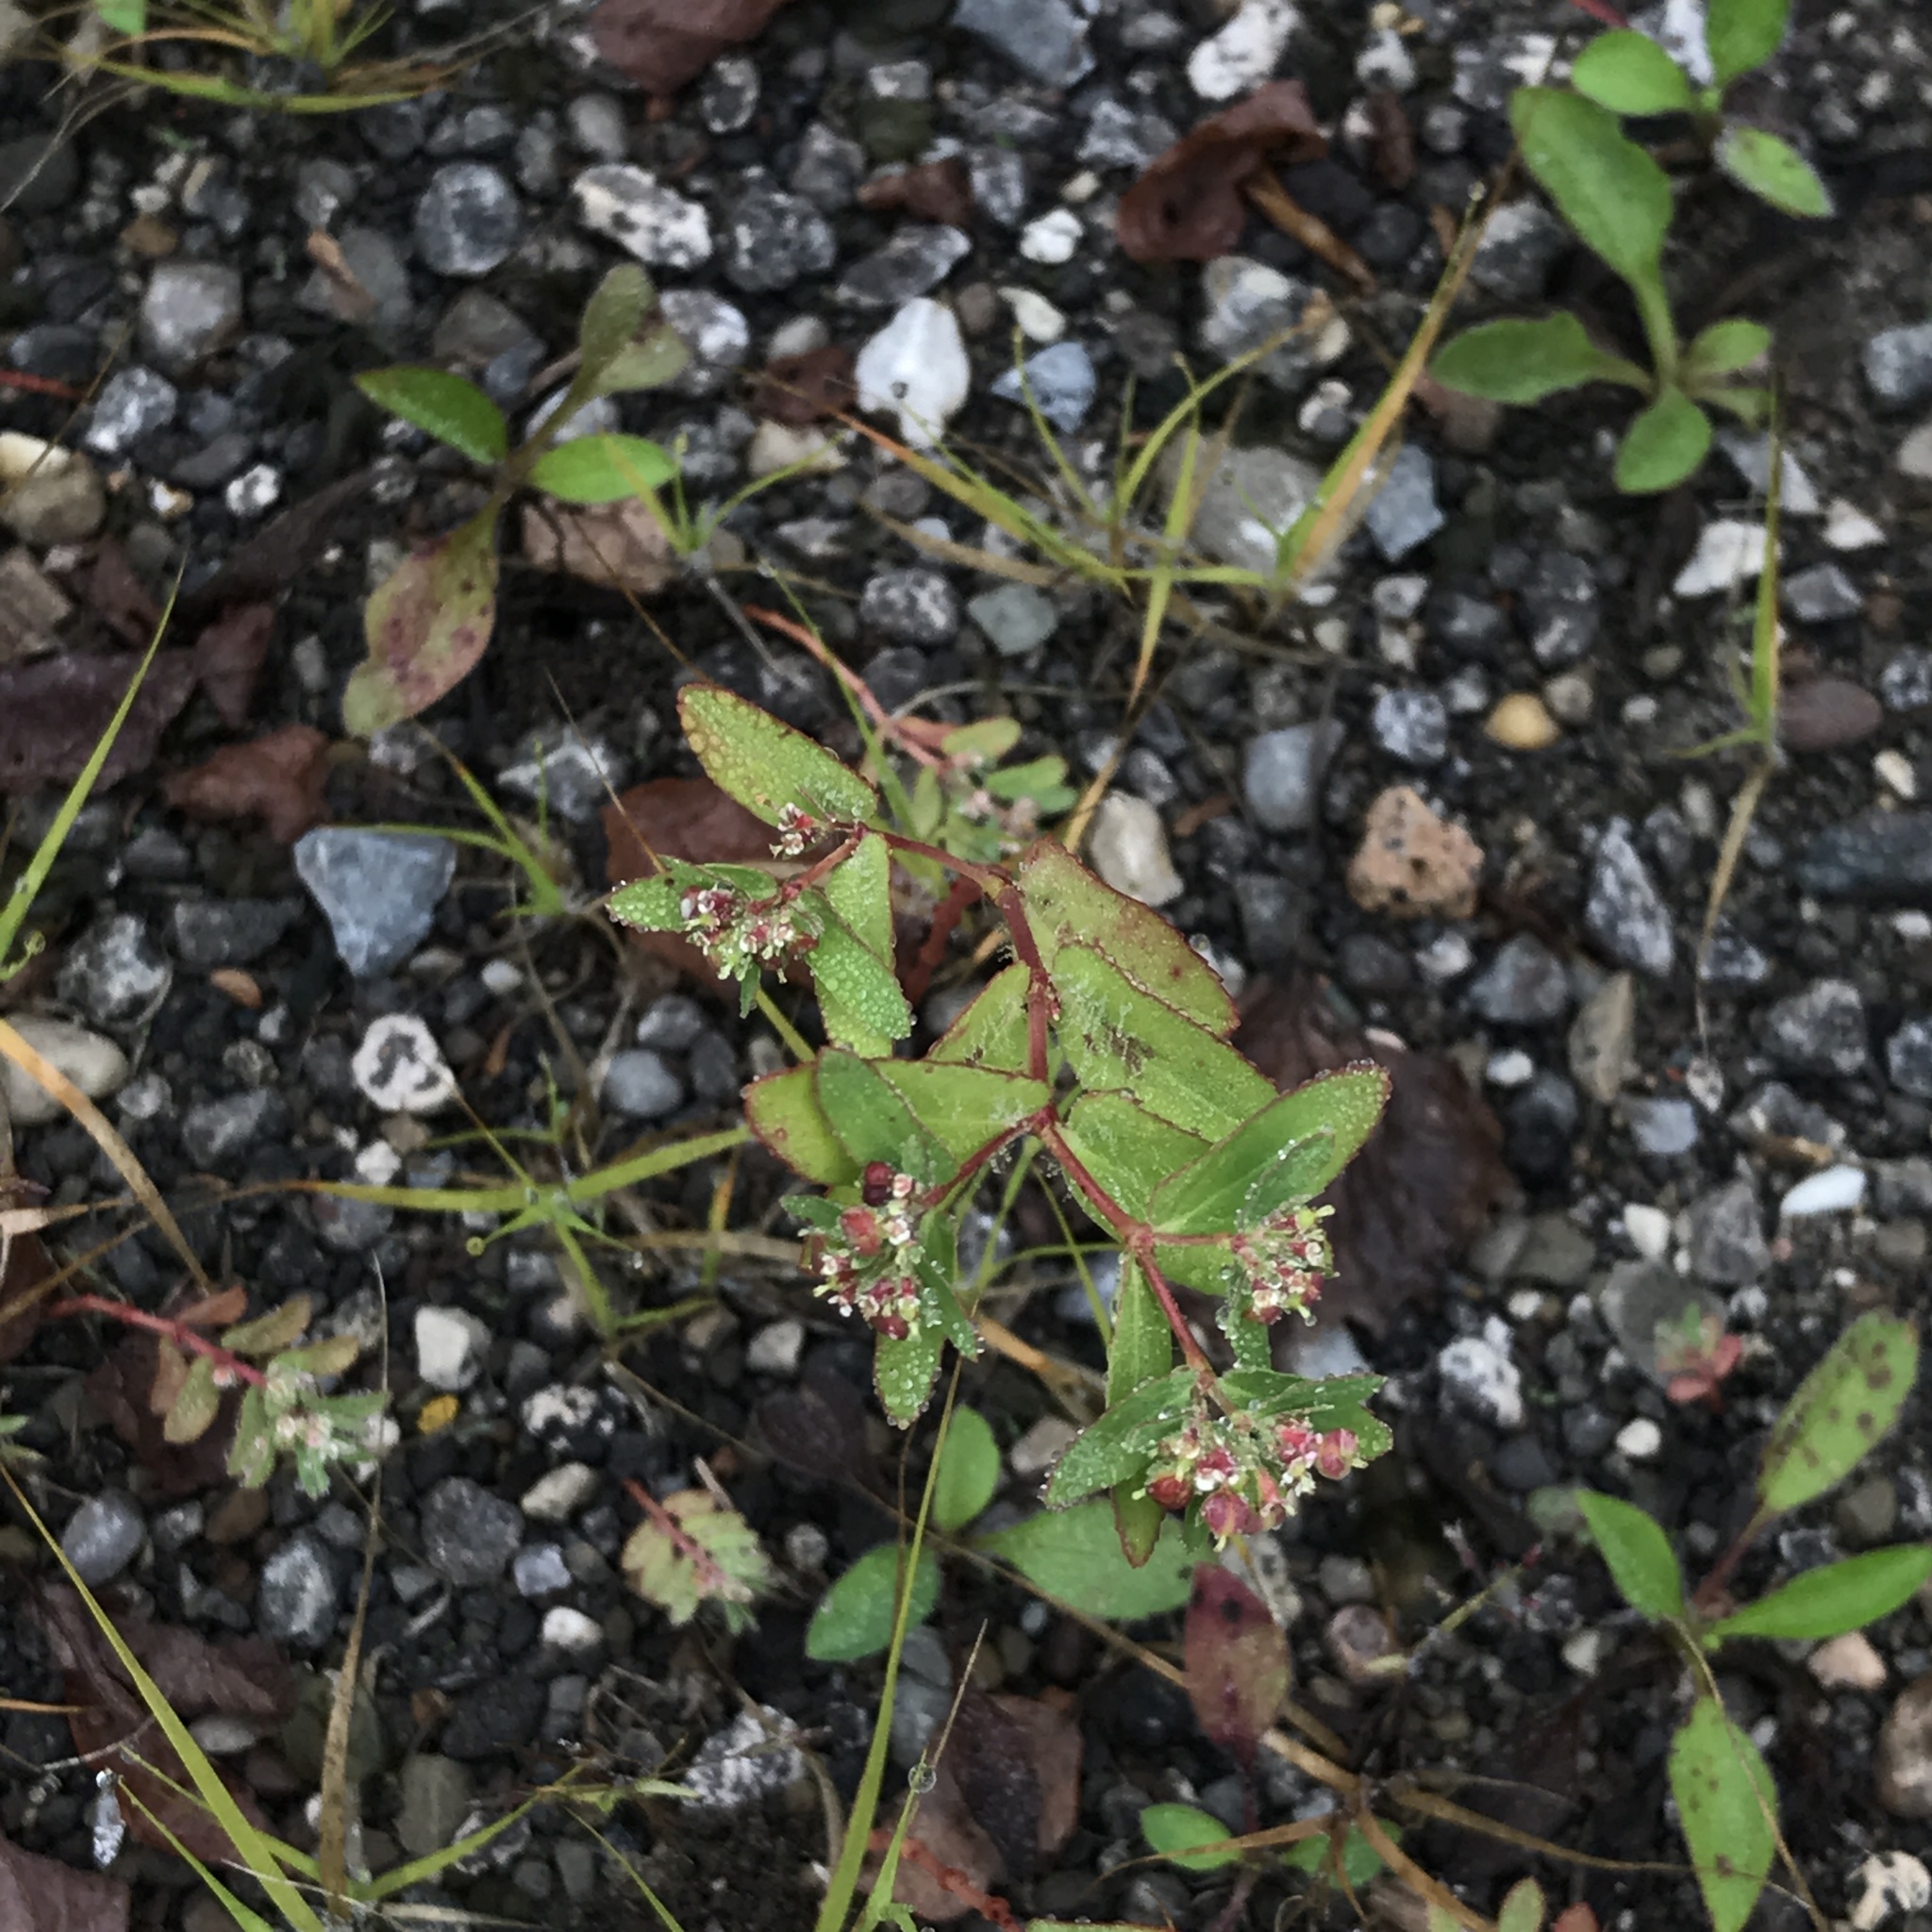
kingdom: Plantae
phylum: Tracheophyta
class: Magnoliopsida
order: Malpighiales
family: Euphorbiaceae
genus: Euphorbia
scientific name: Euphorbia nutans
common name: Eyebane
